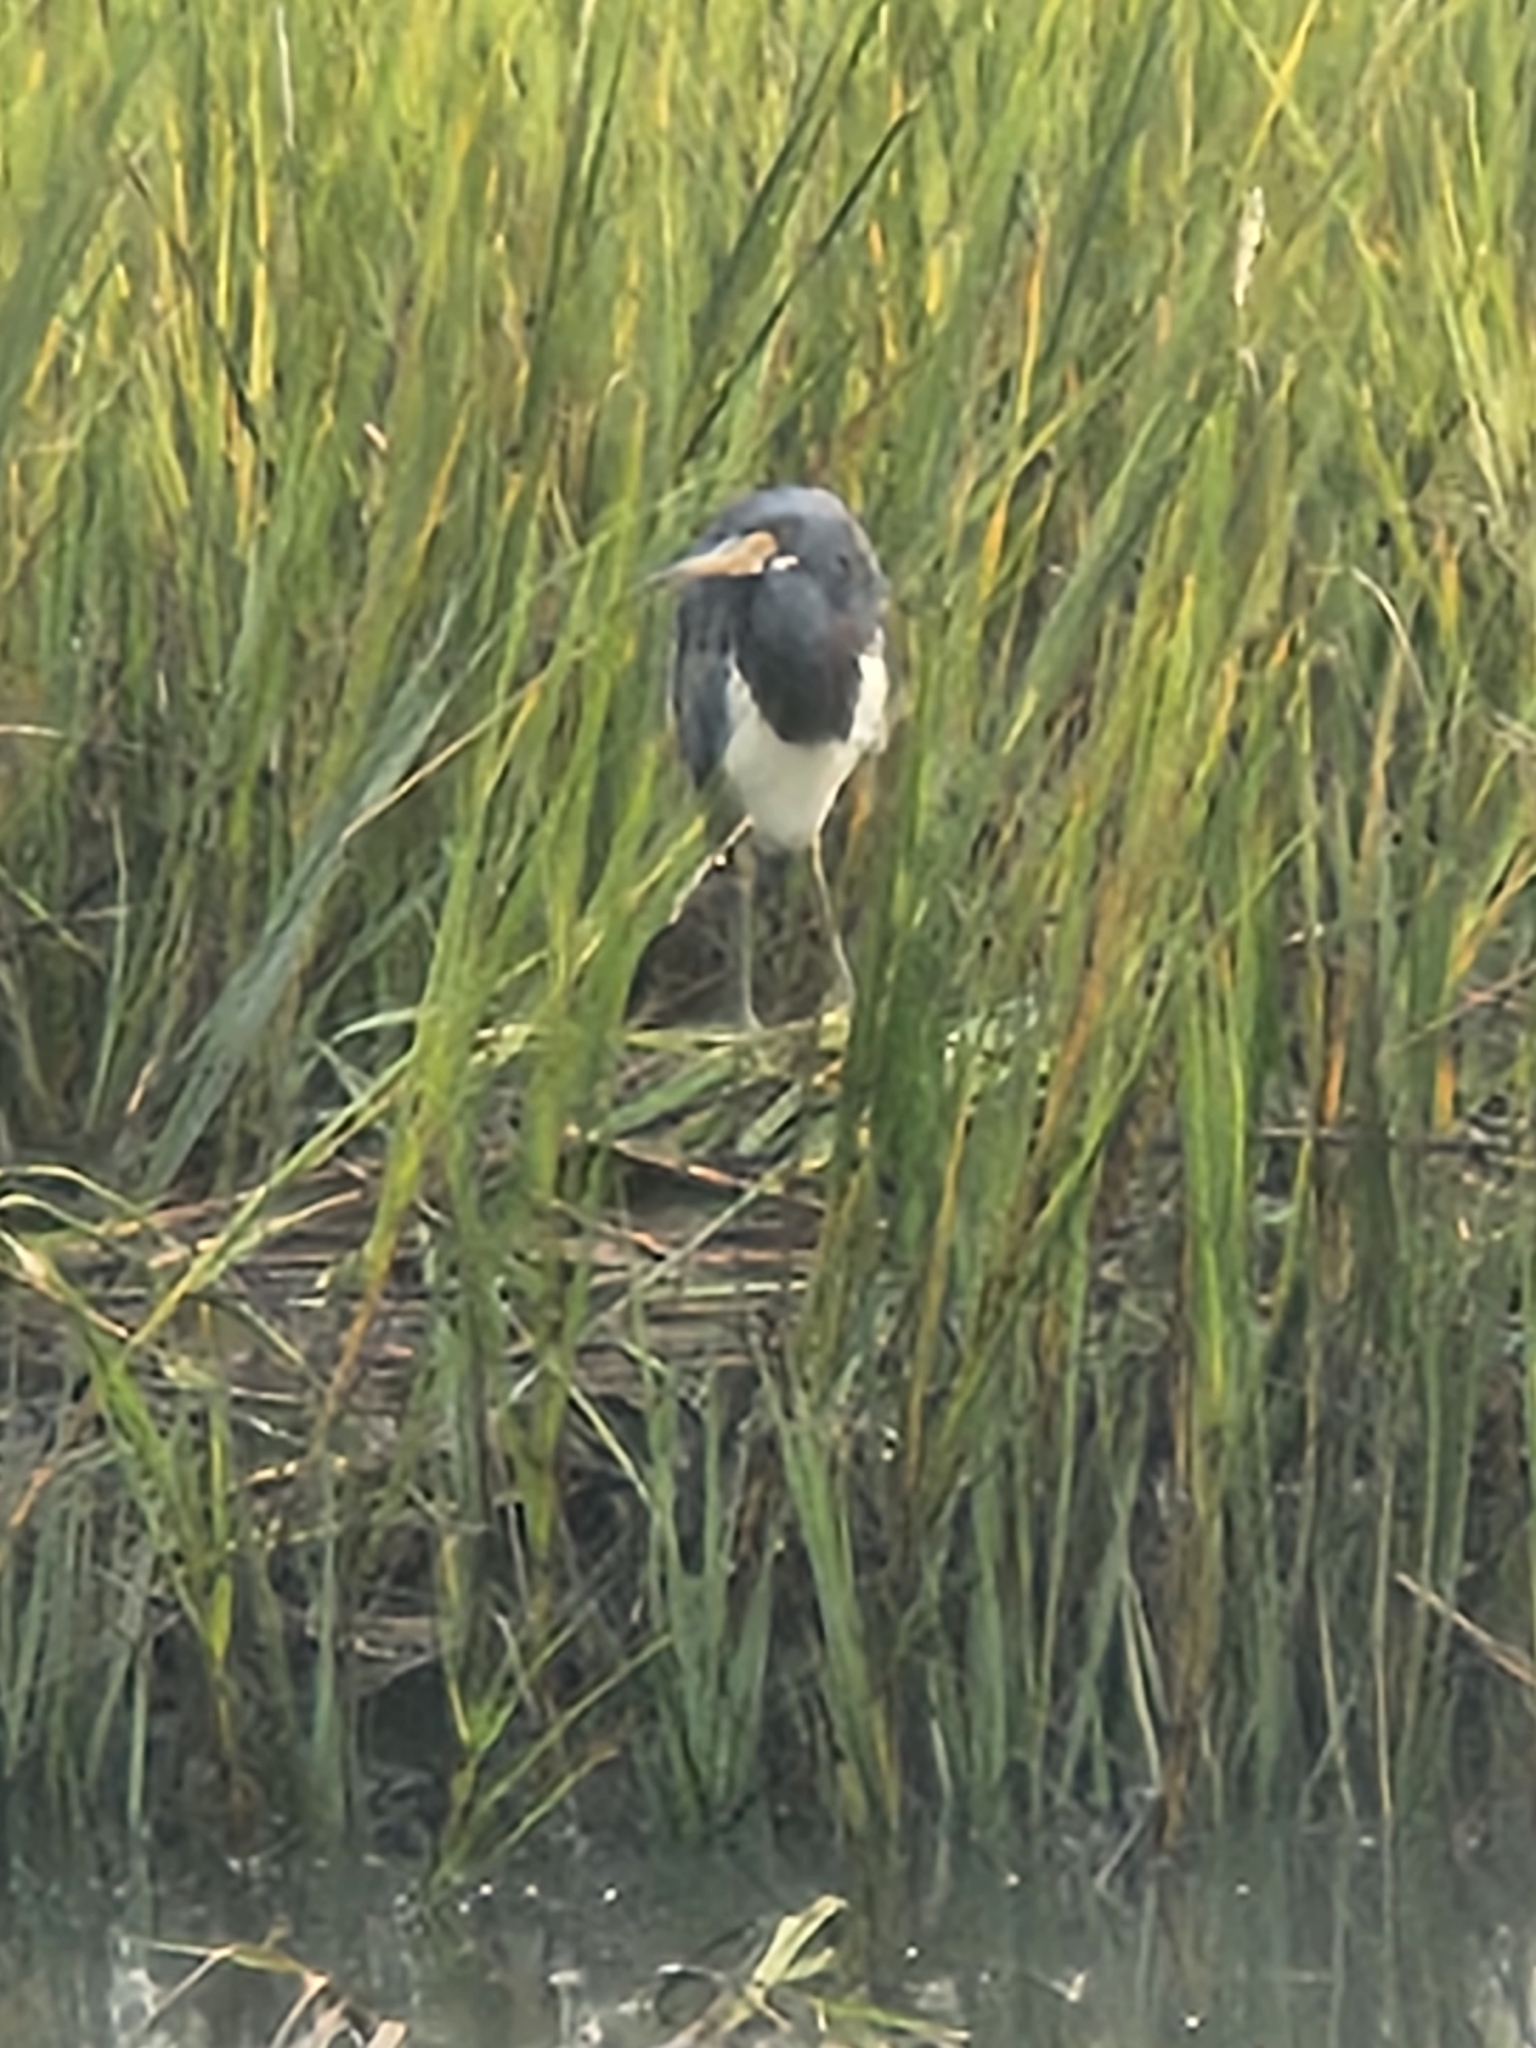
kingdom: Animalia
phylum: Chordata
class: Aves
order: Pelecaniformes
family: Ardeidae
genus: Egretta
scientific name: Egretta tricolor
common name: Tricolored heron
